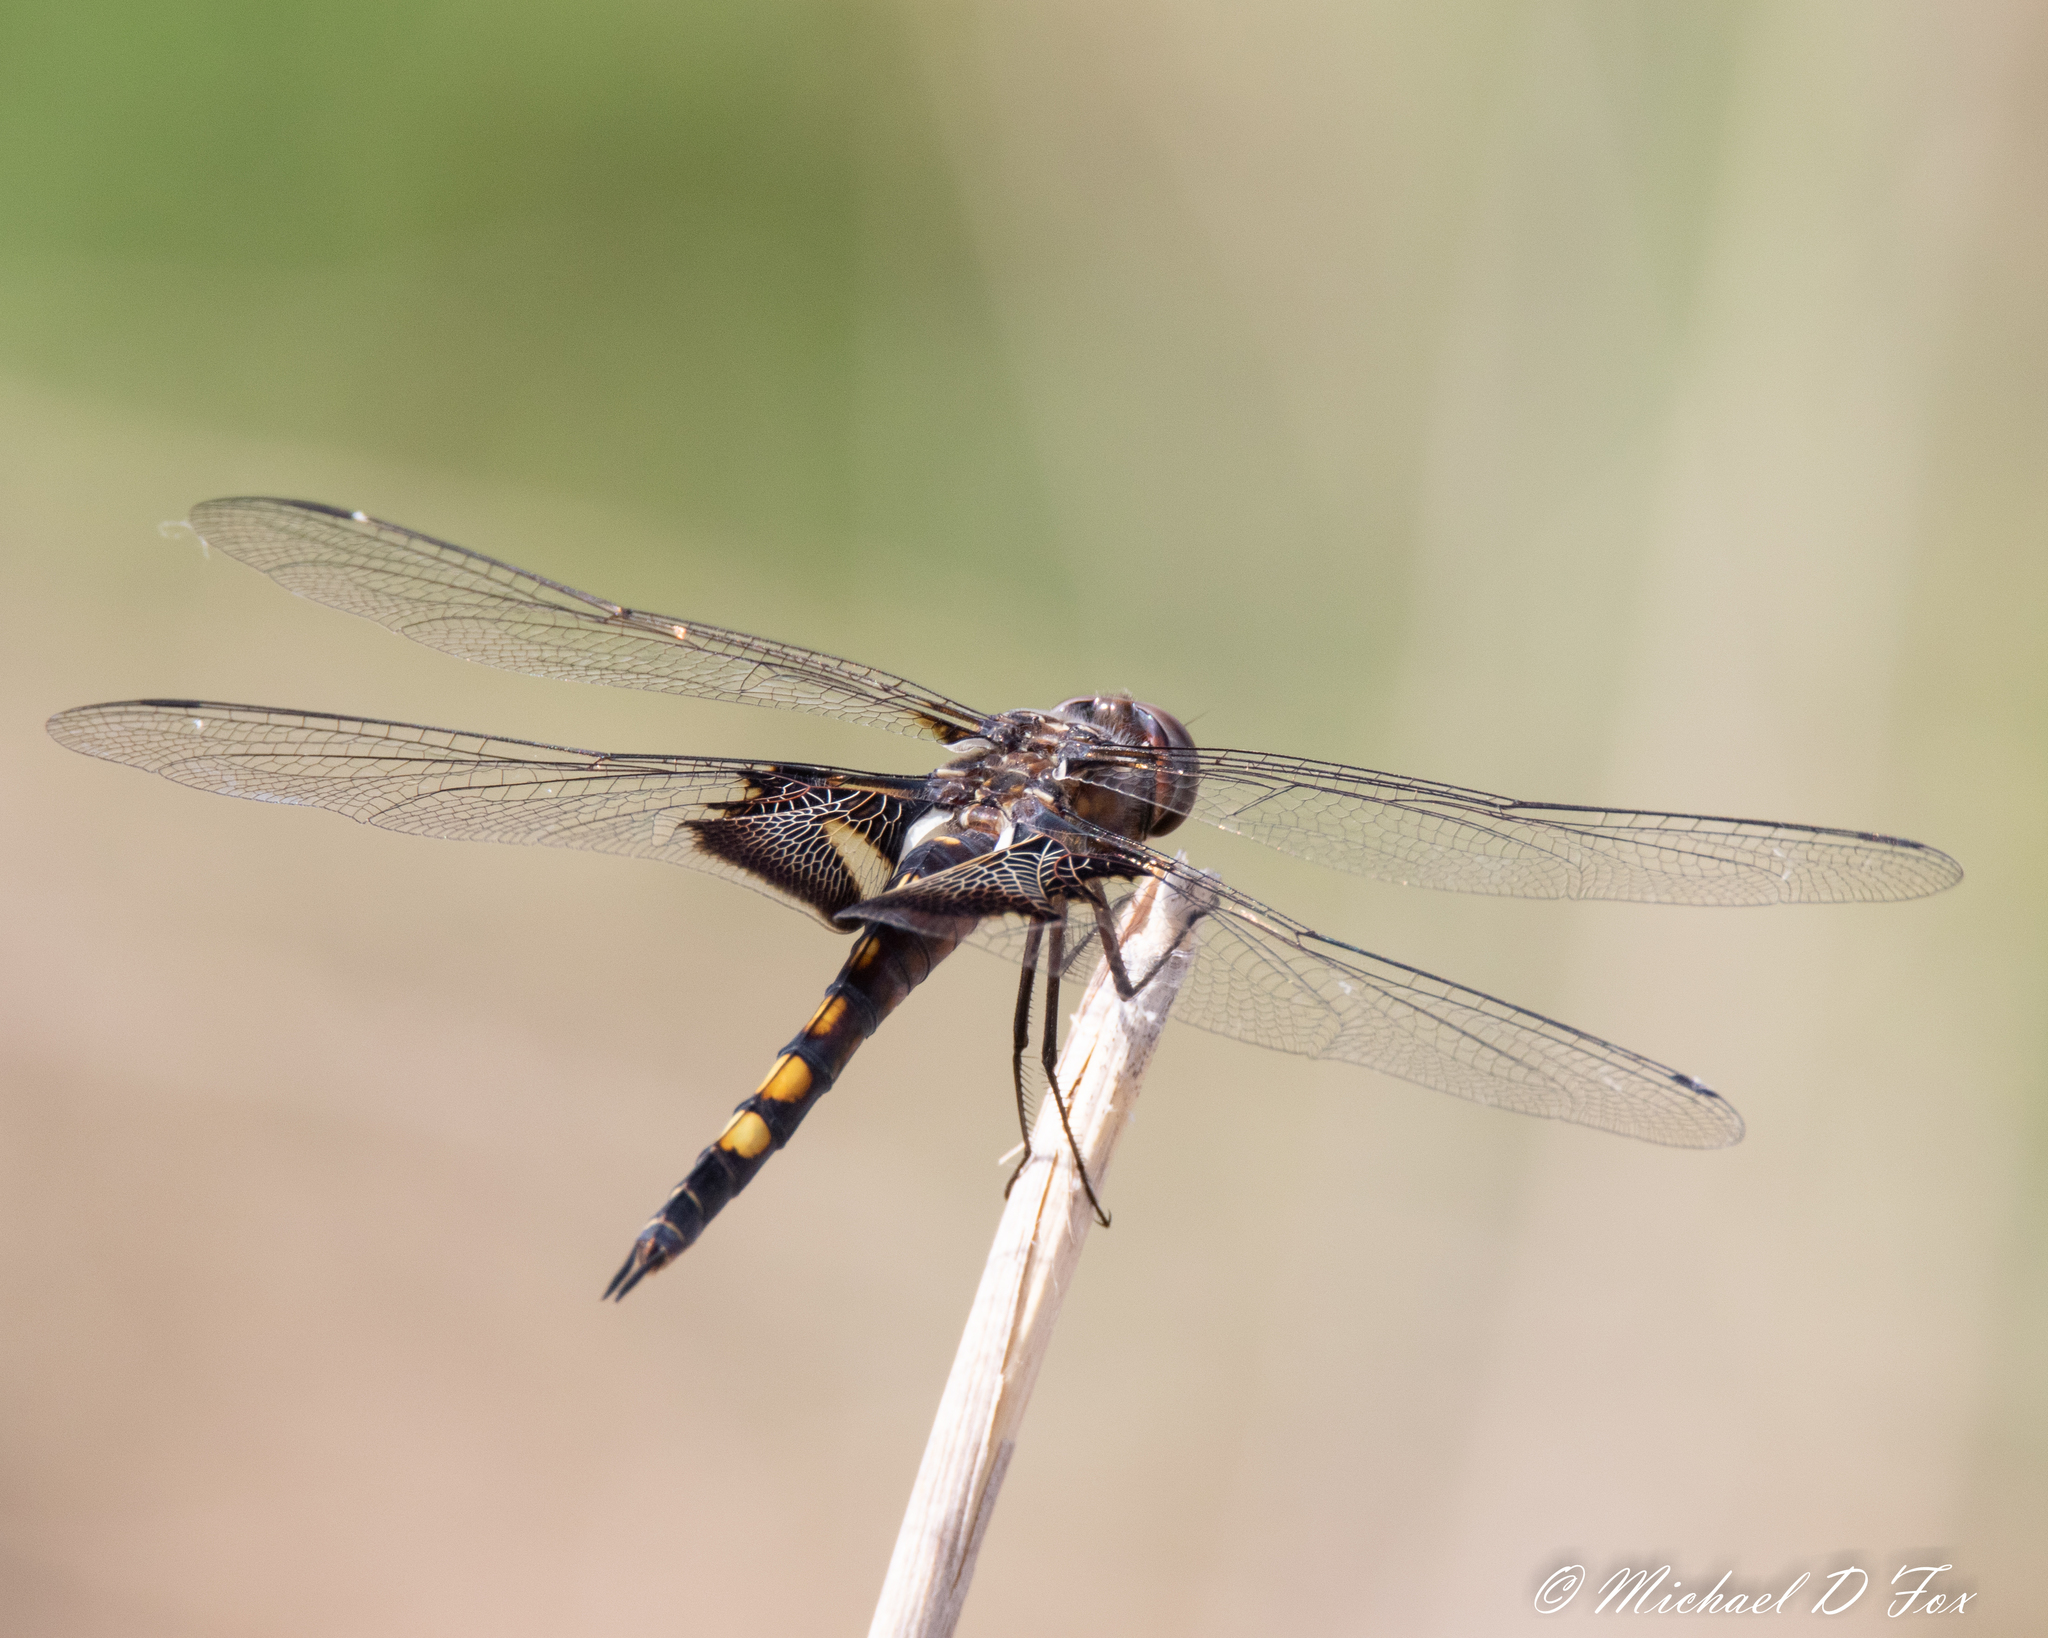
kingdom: Animalia
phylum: Arthropoda
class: Insecta
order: Odonata
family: Libellulidae
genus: Tramea
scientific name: Tramea lacerata
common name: Black saddlebags
